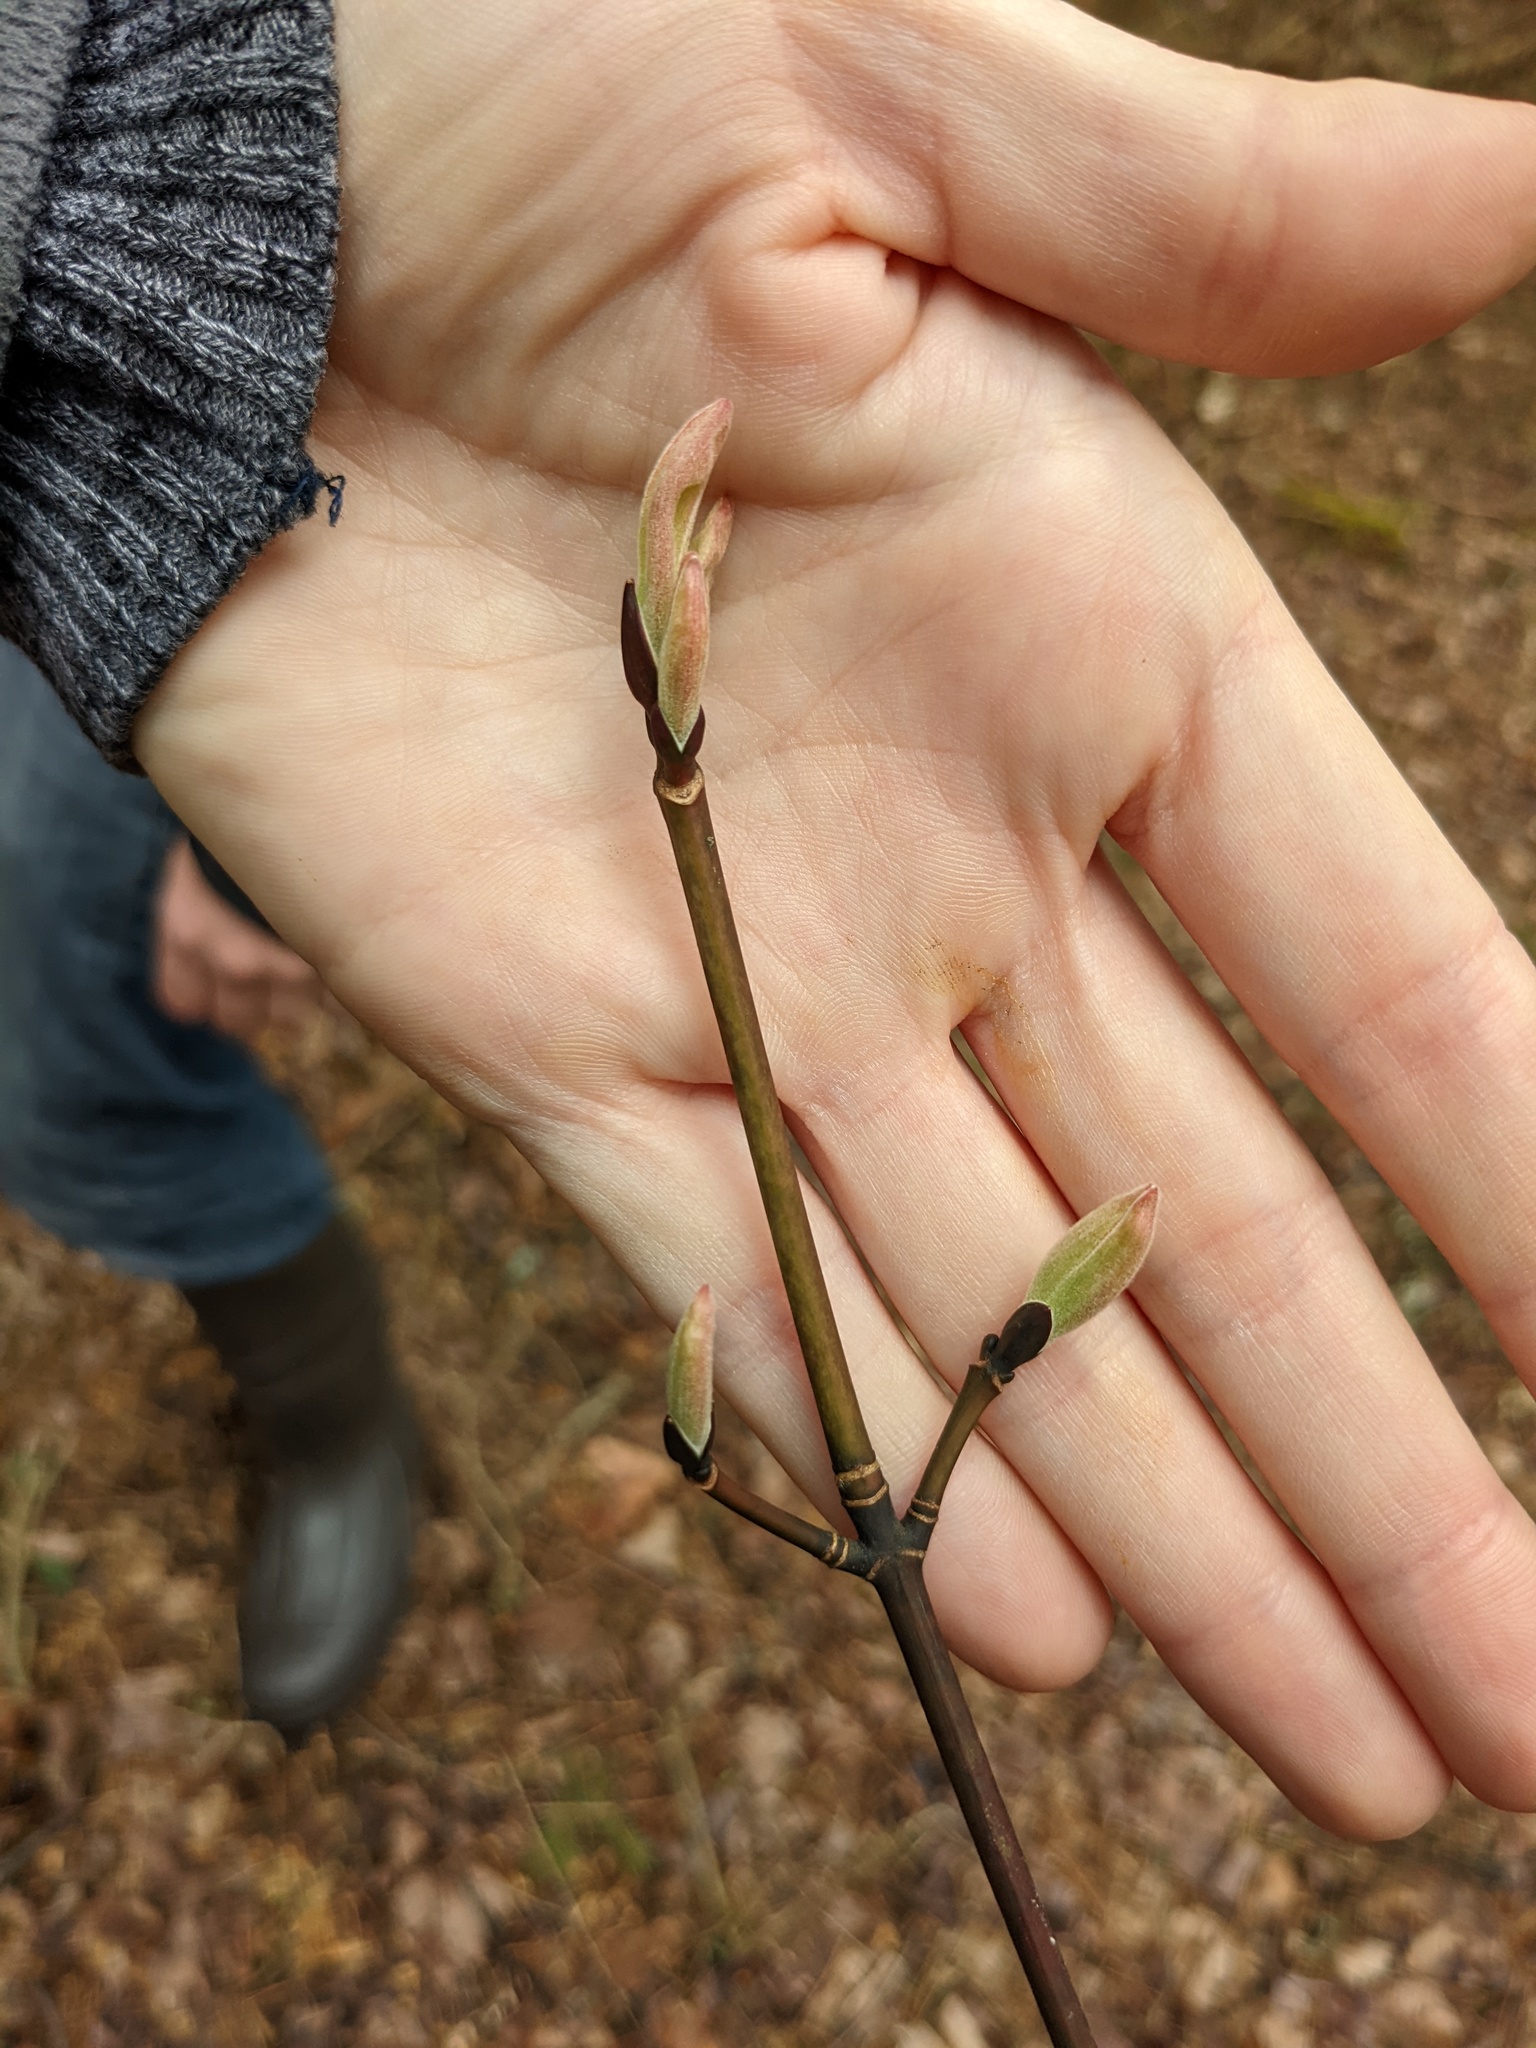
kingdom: Plantae
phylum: Tracheophyta
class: Magnoliopsida
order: Sapindales
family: Sapindaceae
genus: Acer
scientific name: Acer pensylvanicum
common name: Moosewood
